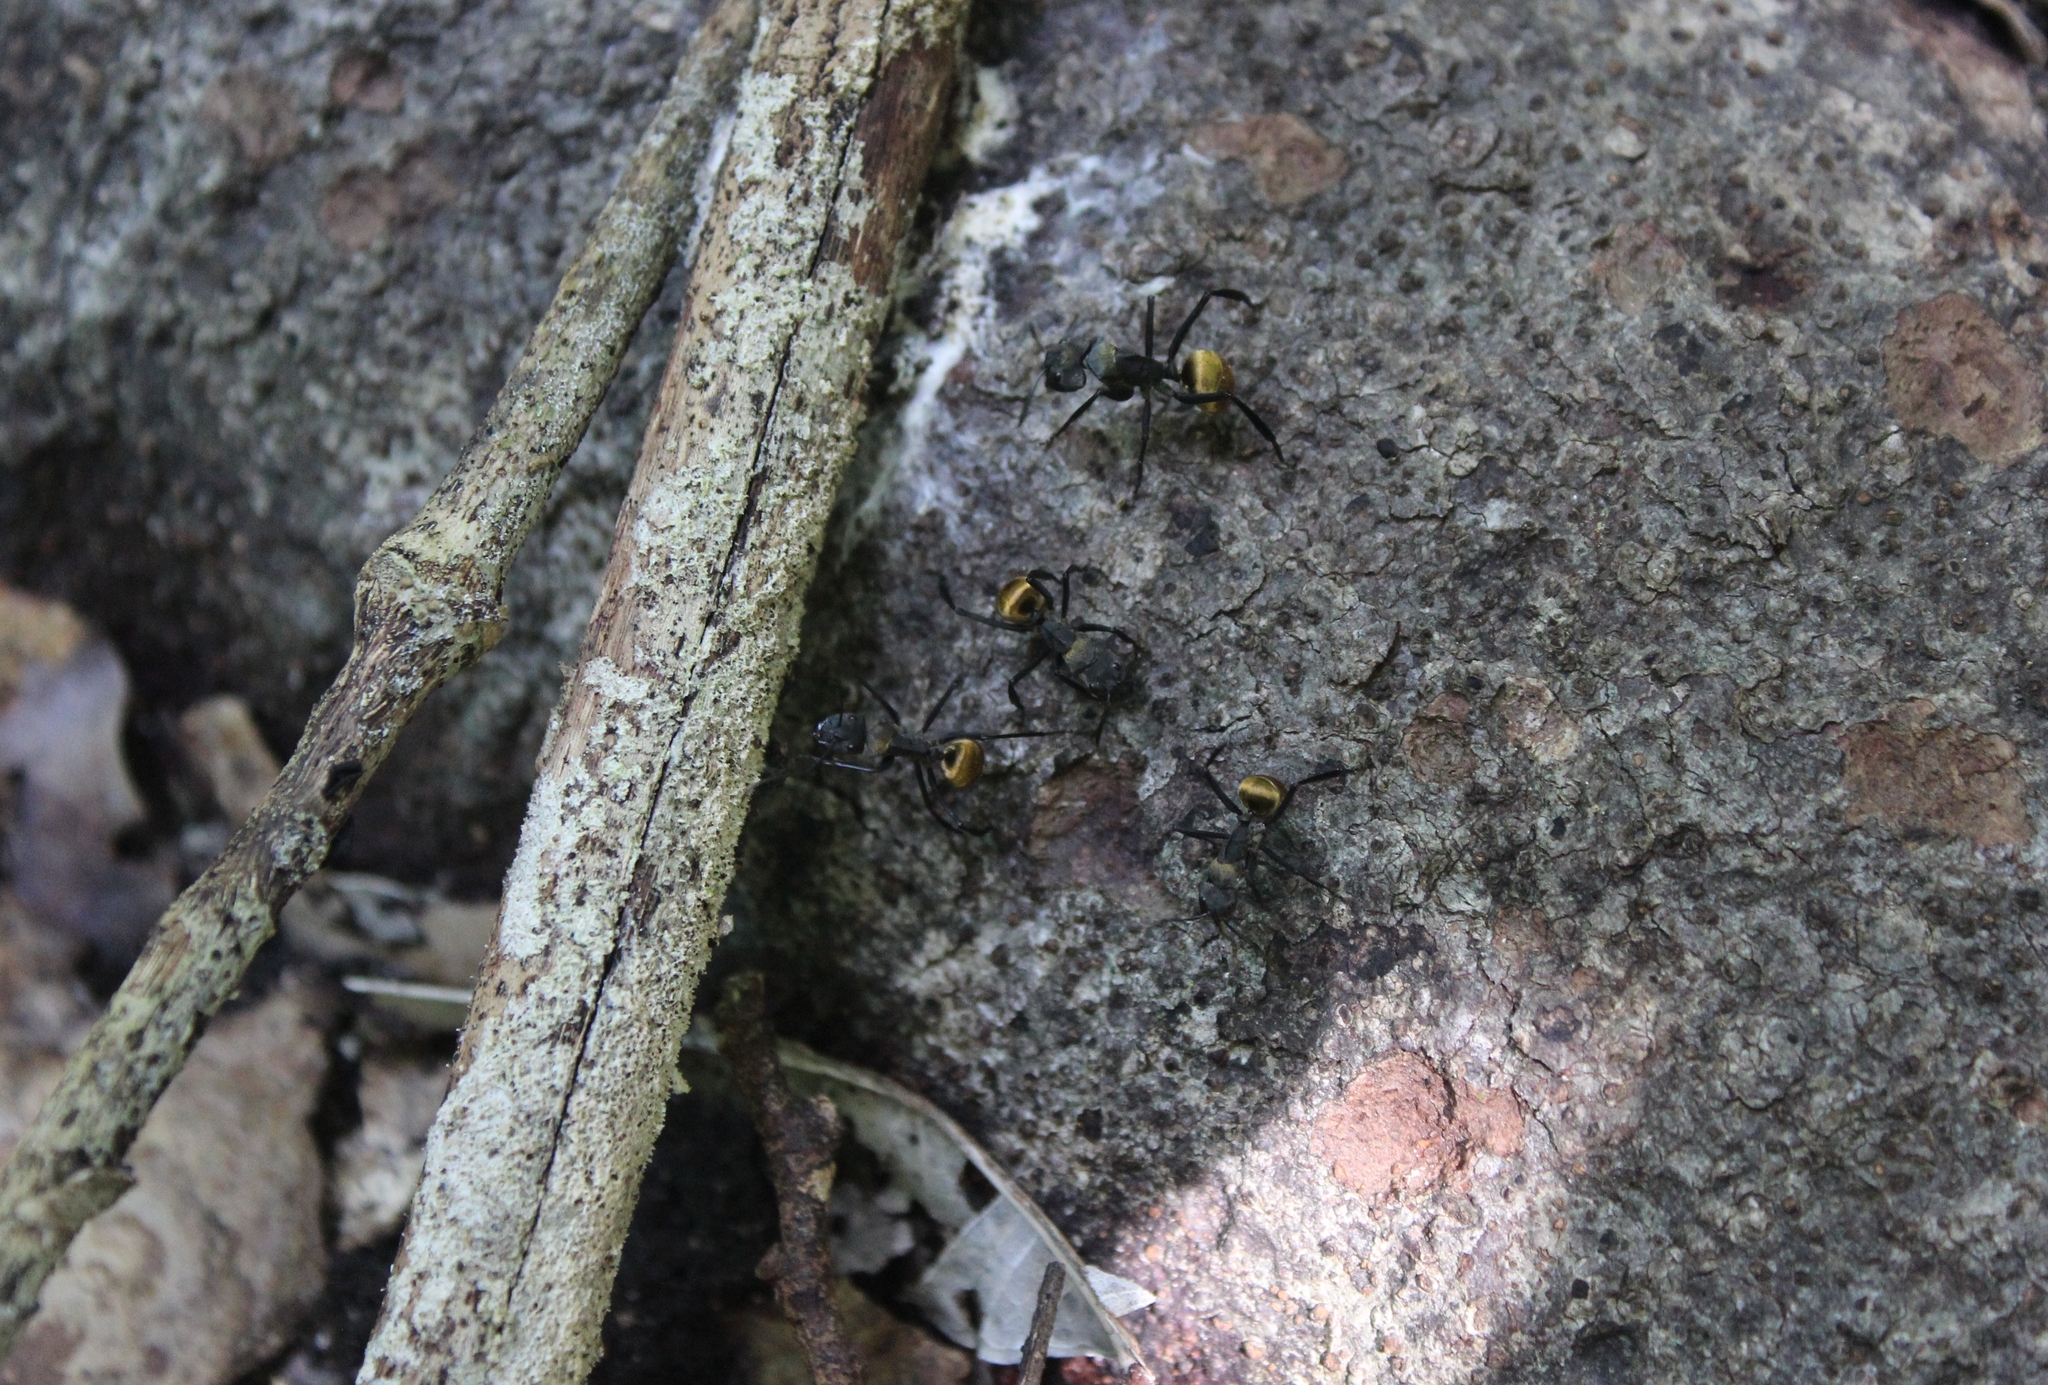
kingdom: Animalia
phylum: Arthropoda
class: Insecta
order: Hymenoptera
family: Formicidae
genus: Camponotus
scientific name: Camponotus sericeiventris
